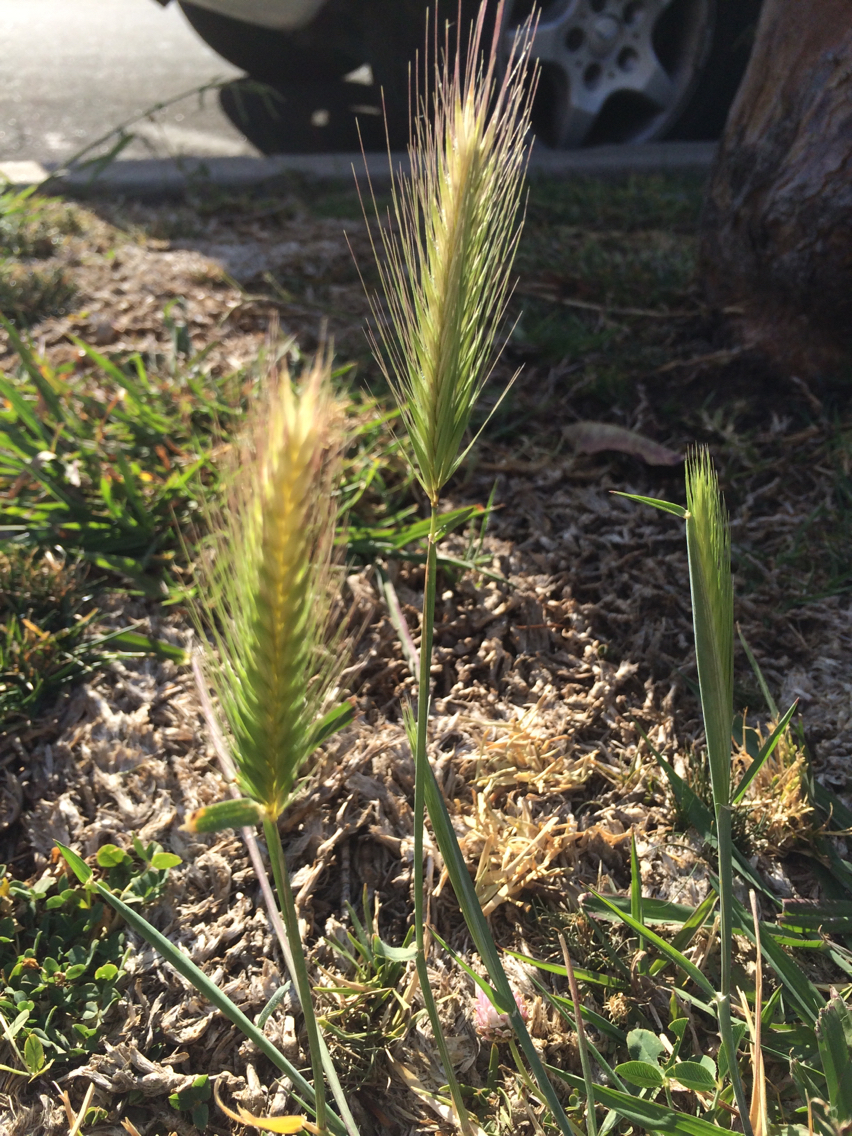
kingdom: Plantae
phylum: Tracheophyta
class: Liliopsida
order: Poales
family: Poaceae
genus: Hordeum
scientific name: Hordeum murinum
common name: Wall barley
